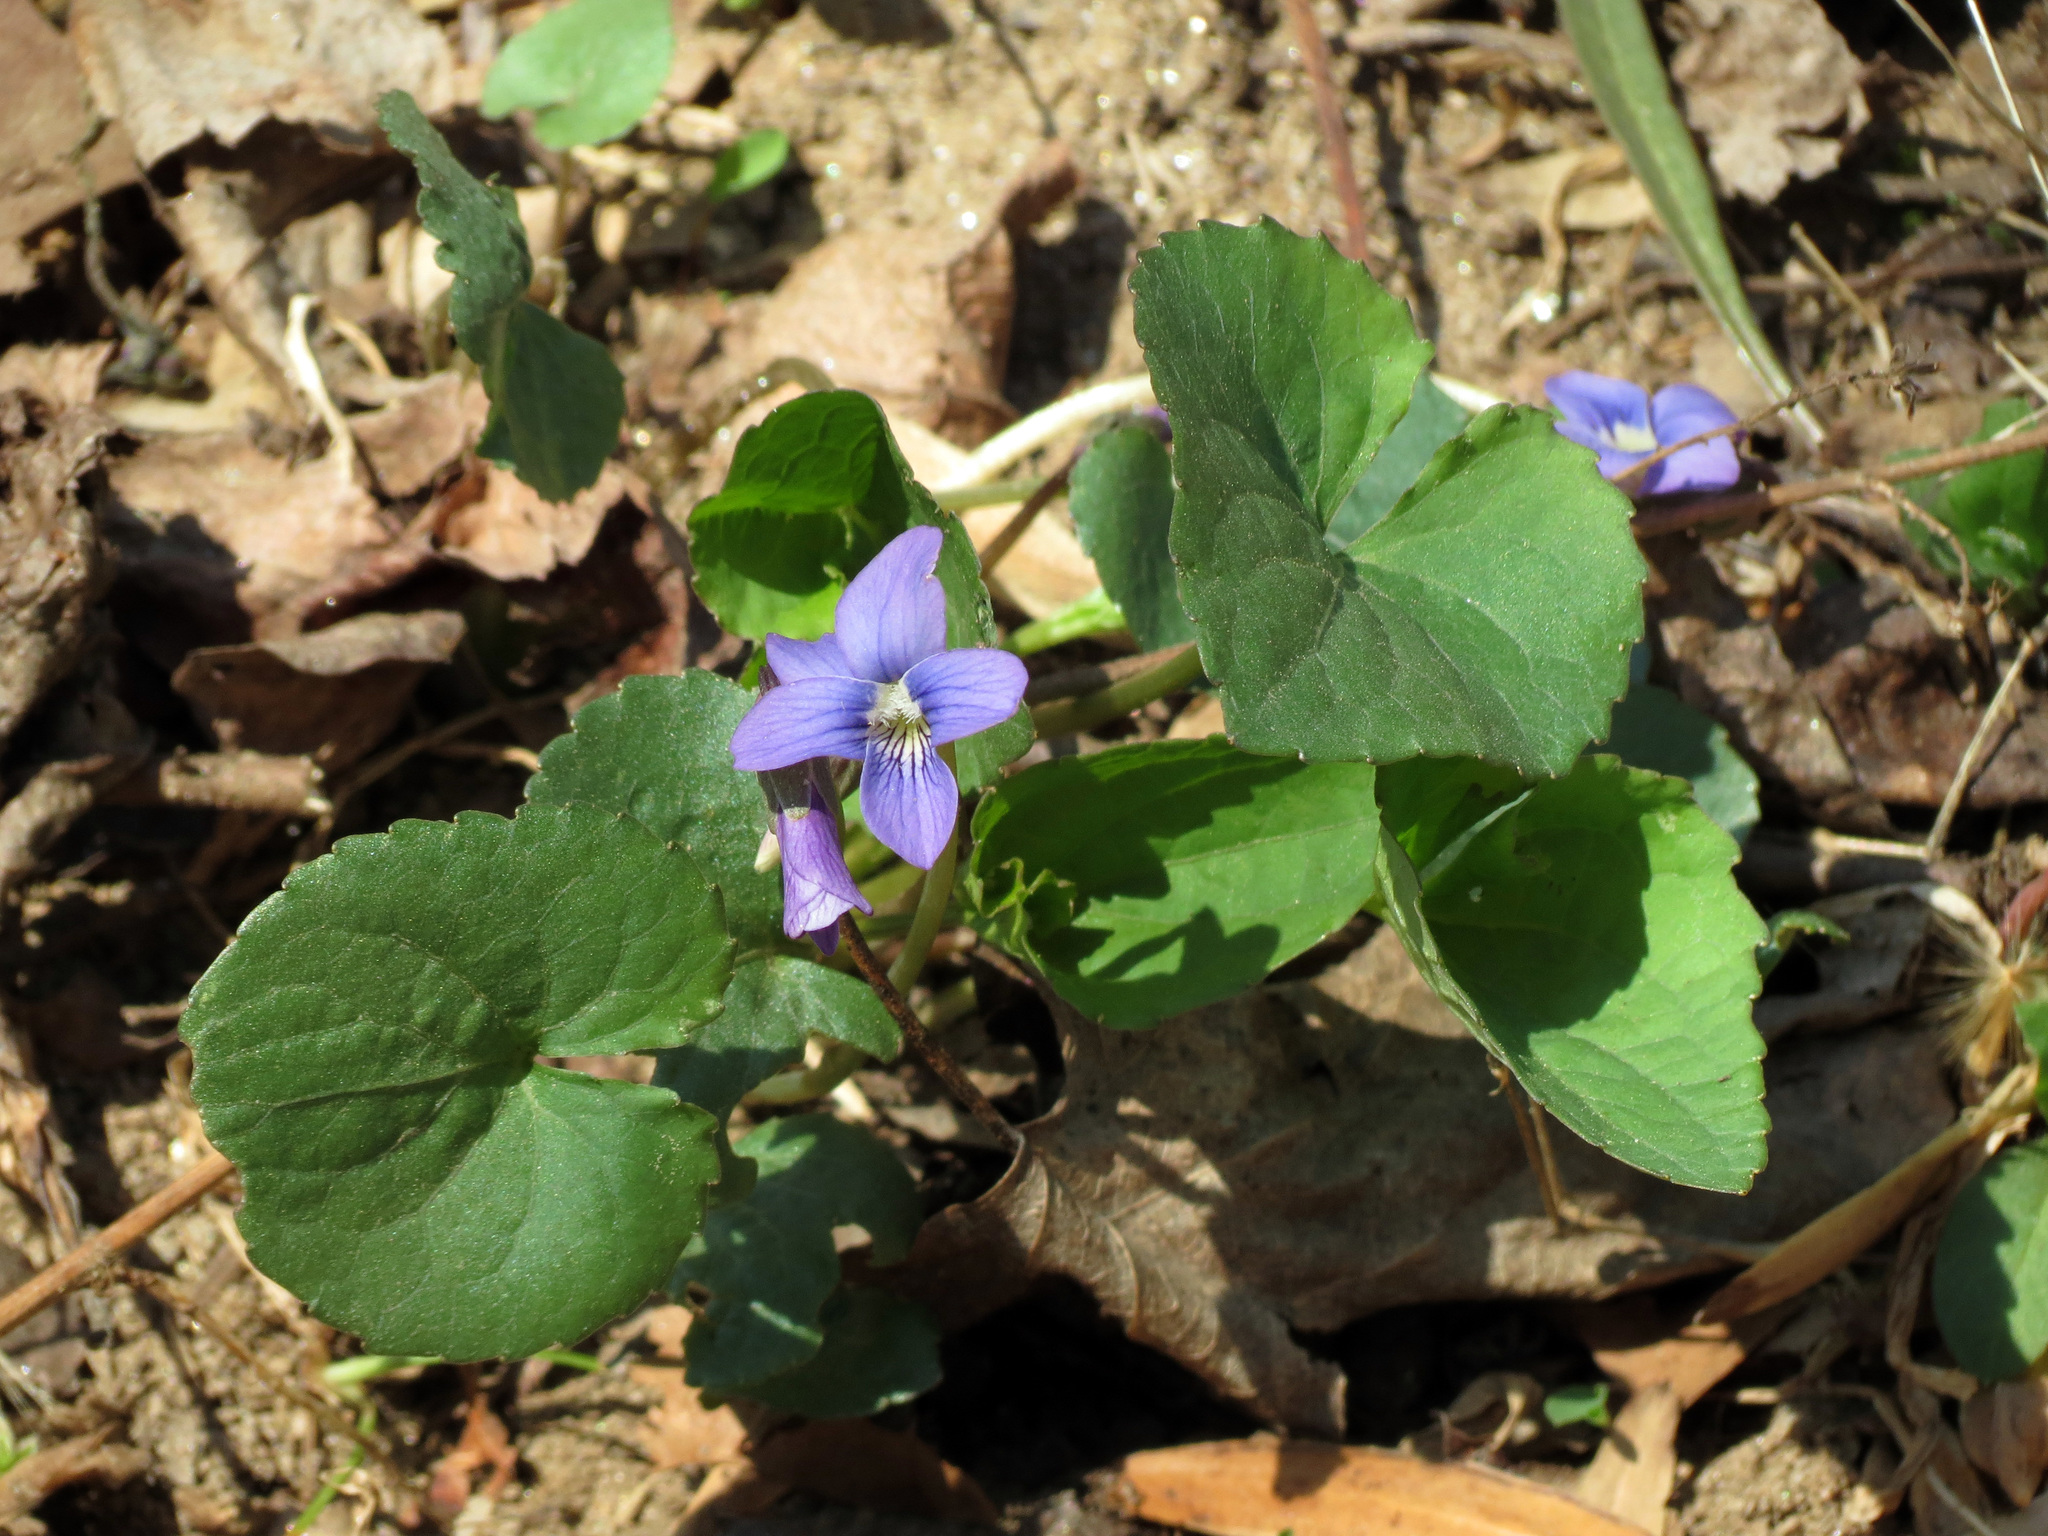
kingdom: Plantae
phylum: Tracheophyta
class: Magnoliopsida
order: Malpighiales
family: Violaceae
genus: Viola
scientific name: Viola sororia
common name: Dooryard violet
